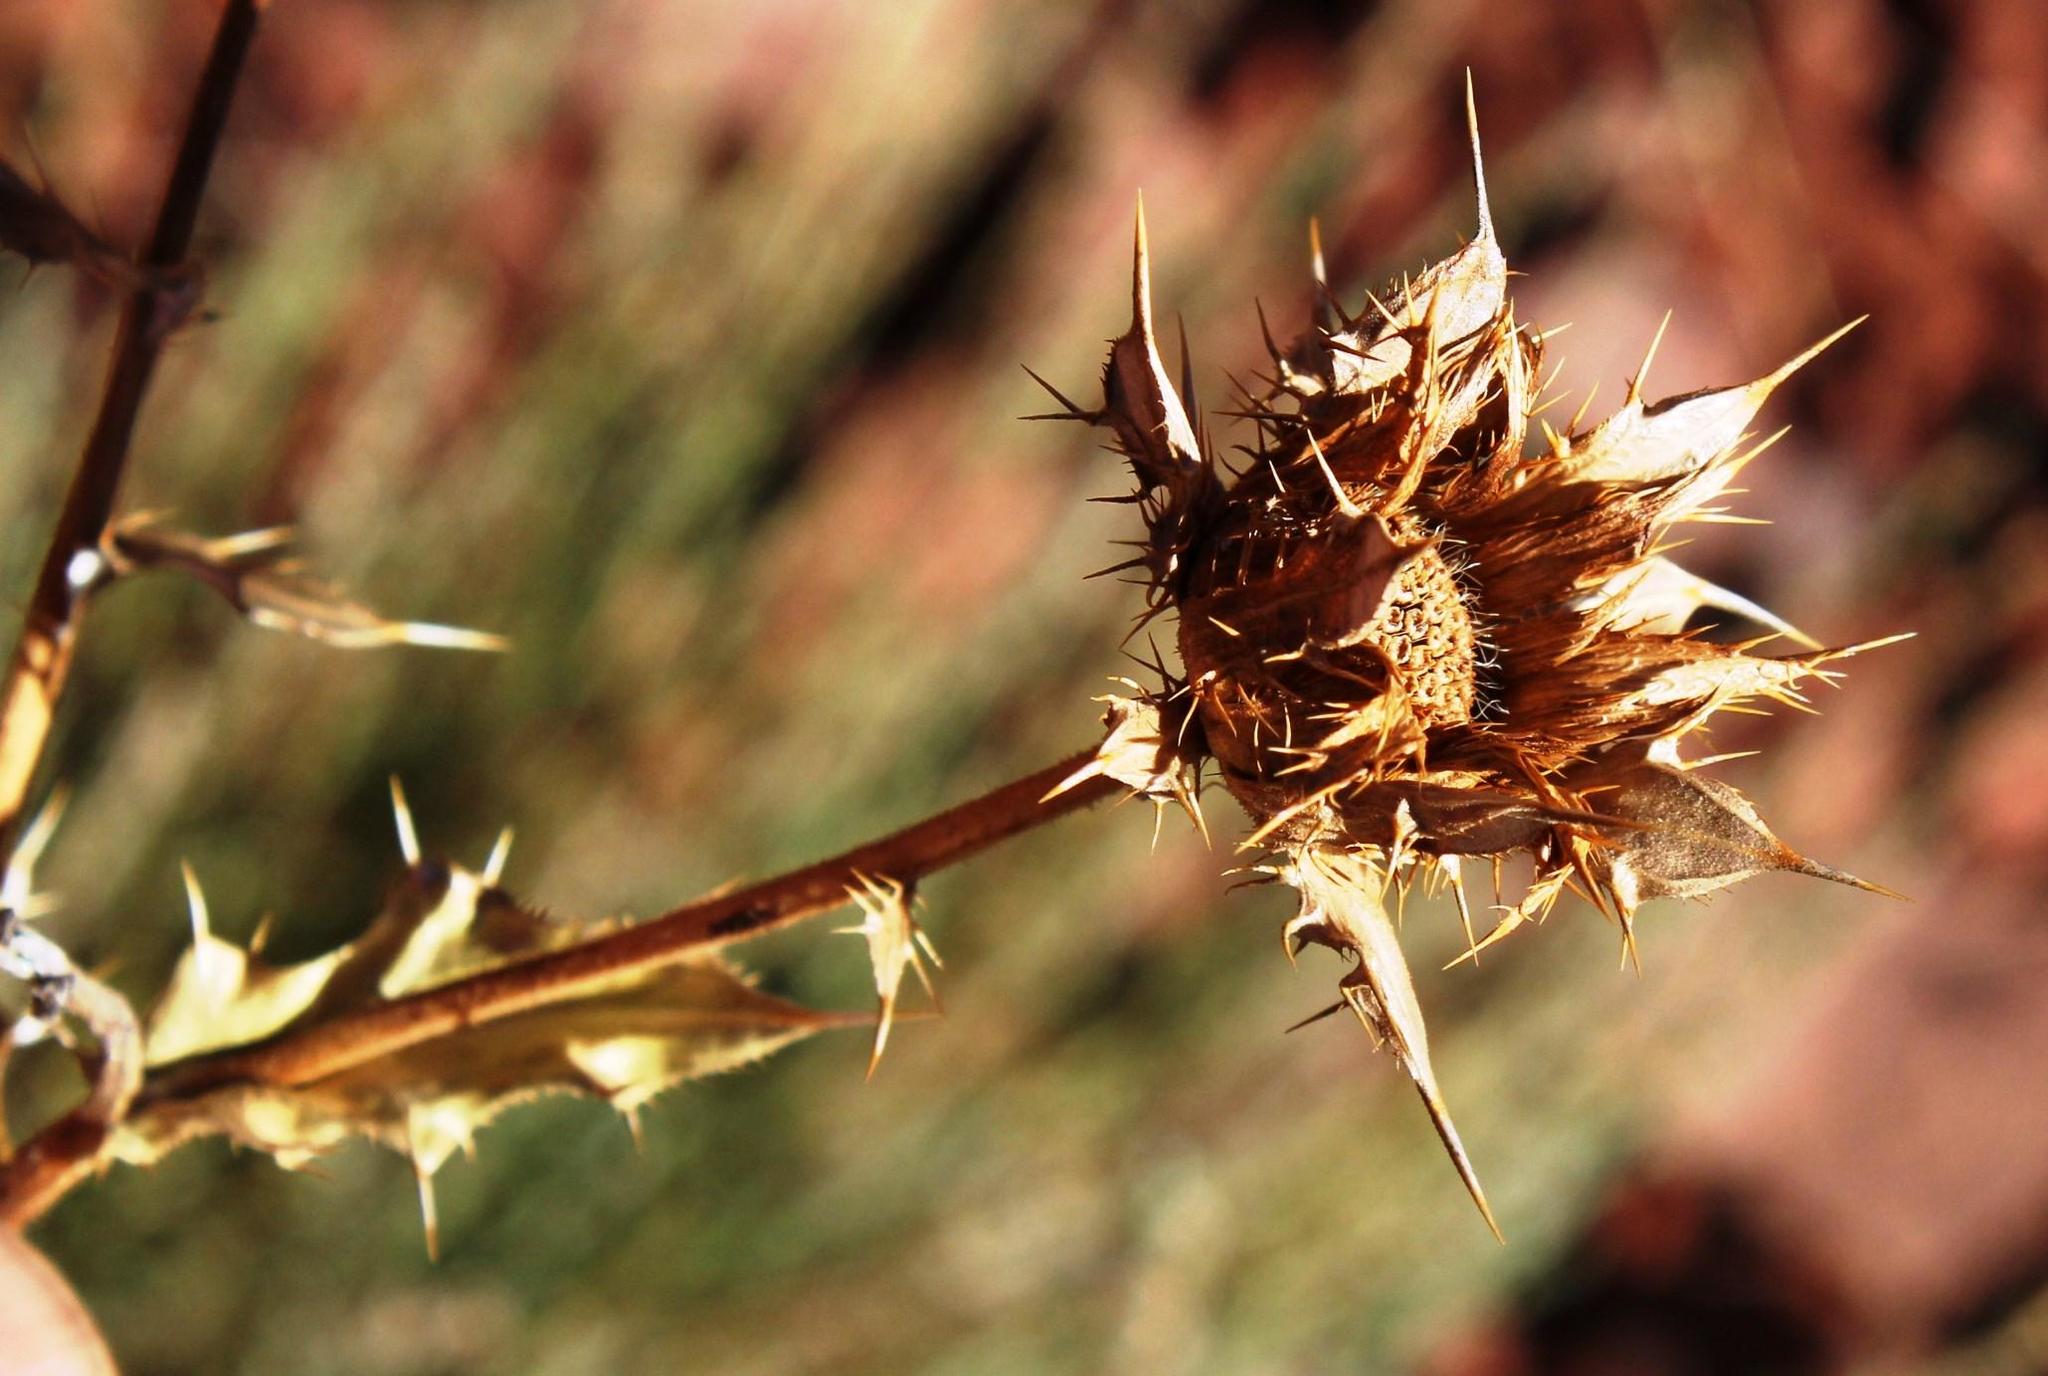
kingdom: Plantae
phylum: Tracheophyta
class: Magnoliopsida
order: Asterales
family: Asteraceae
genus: Berkheya
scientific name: Berkheya cirsiifolia
